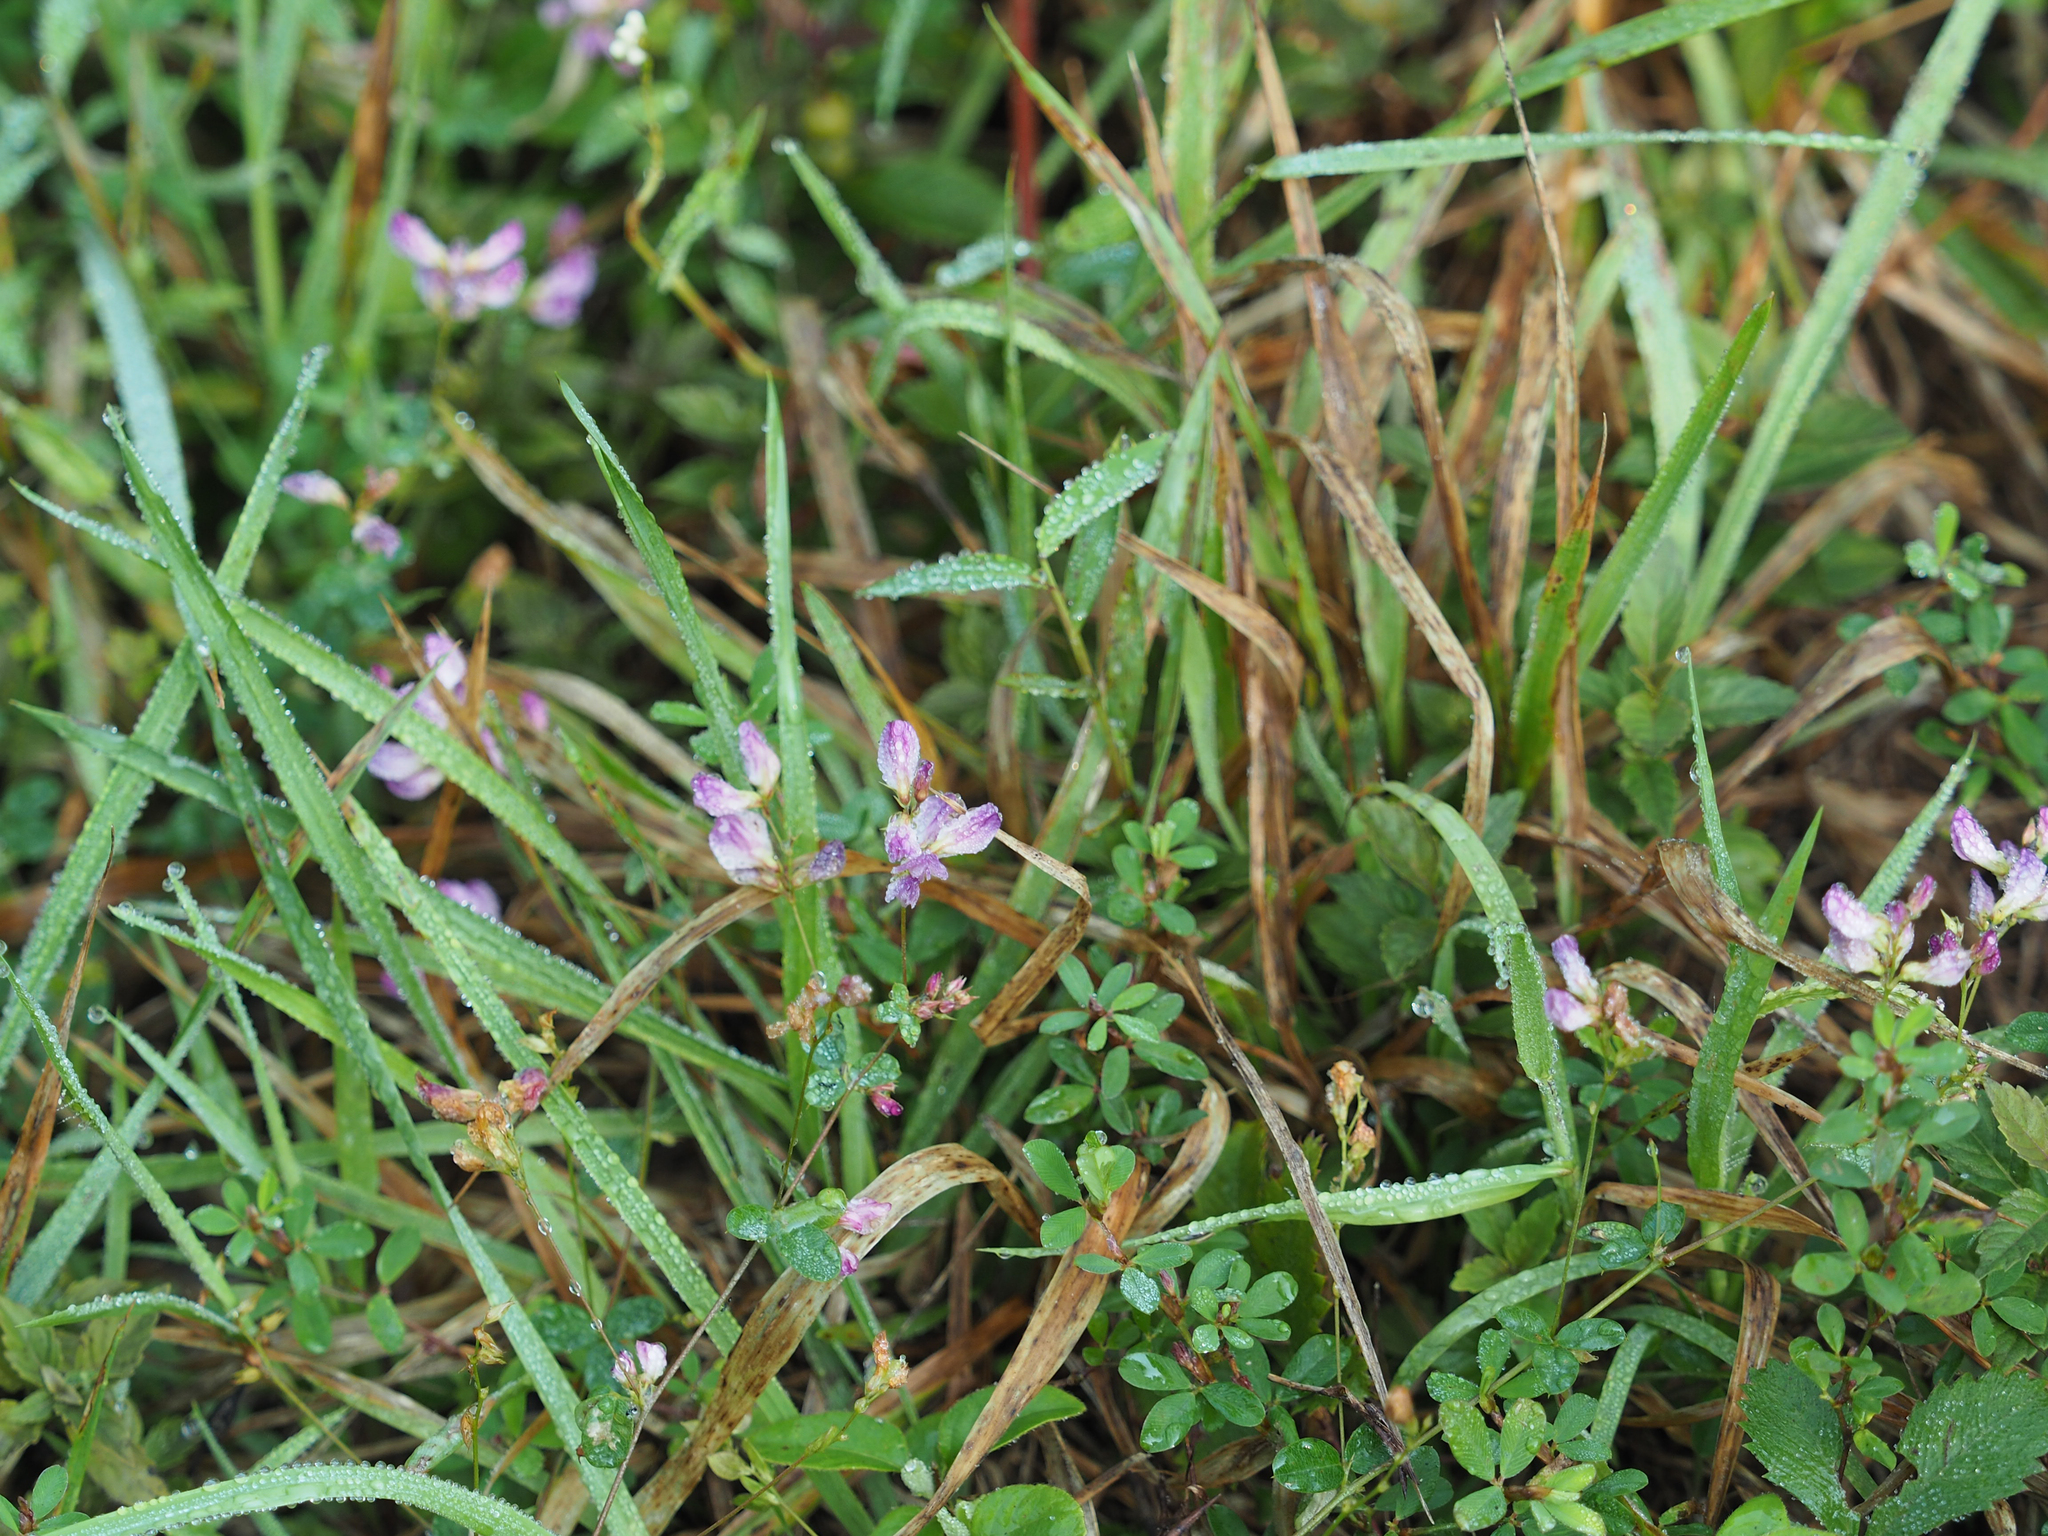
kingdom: Plantae
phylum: Tracheophyta
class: Magnoliopsida
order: Fabales
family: Fabaceae
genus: Kummerowia
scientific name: Kummerowia striata
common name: Japanese clover
